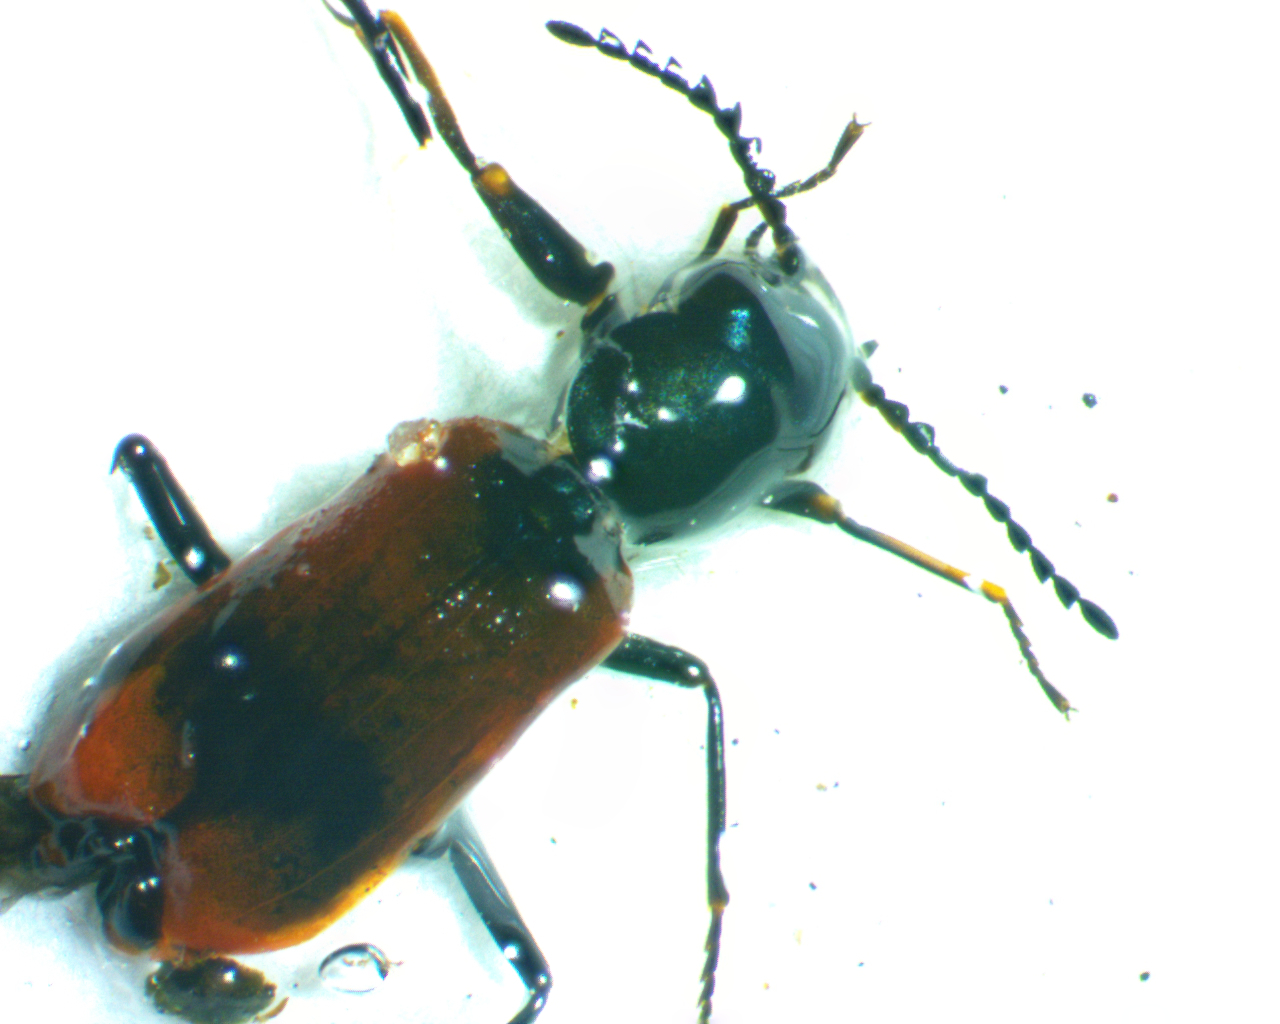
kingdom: Animalia
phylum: Arthropoda
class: Insecta
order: Coleoptera
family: Melyridae
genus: Anthocomus
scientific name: Anthocomus equestris
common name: Black-banded soft-winged flower beetle
